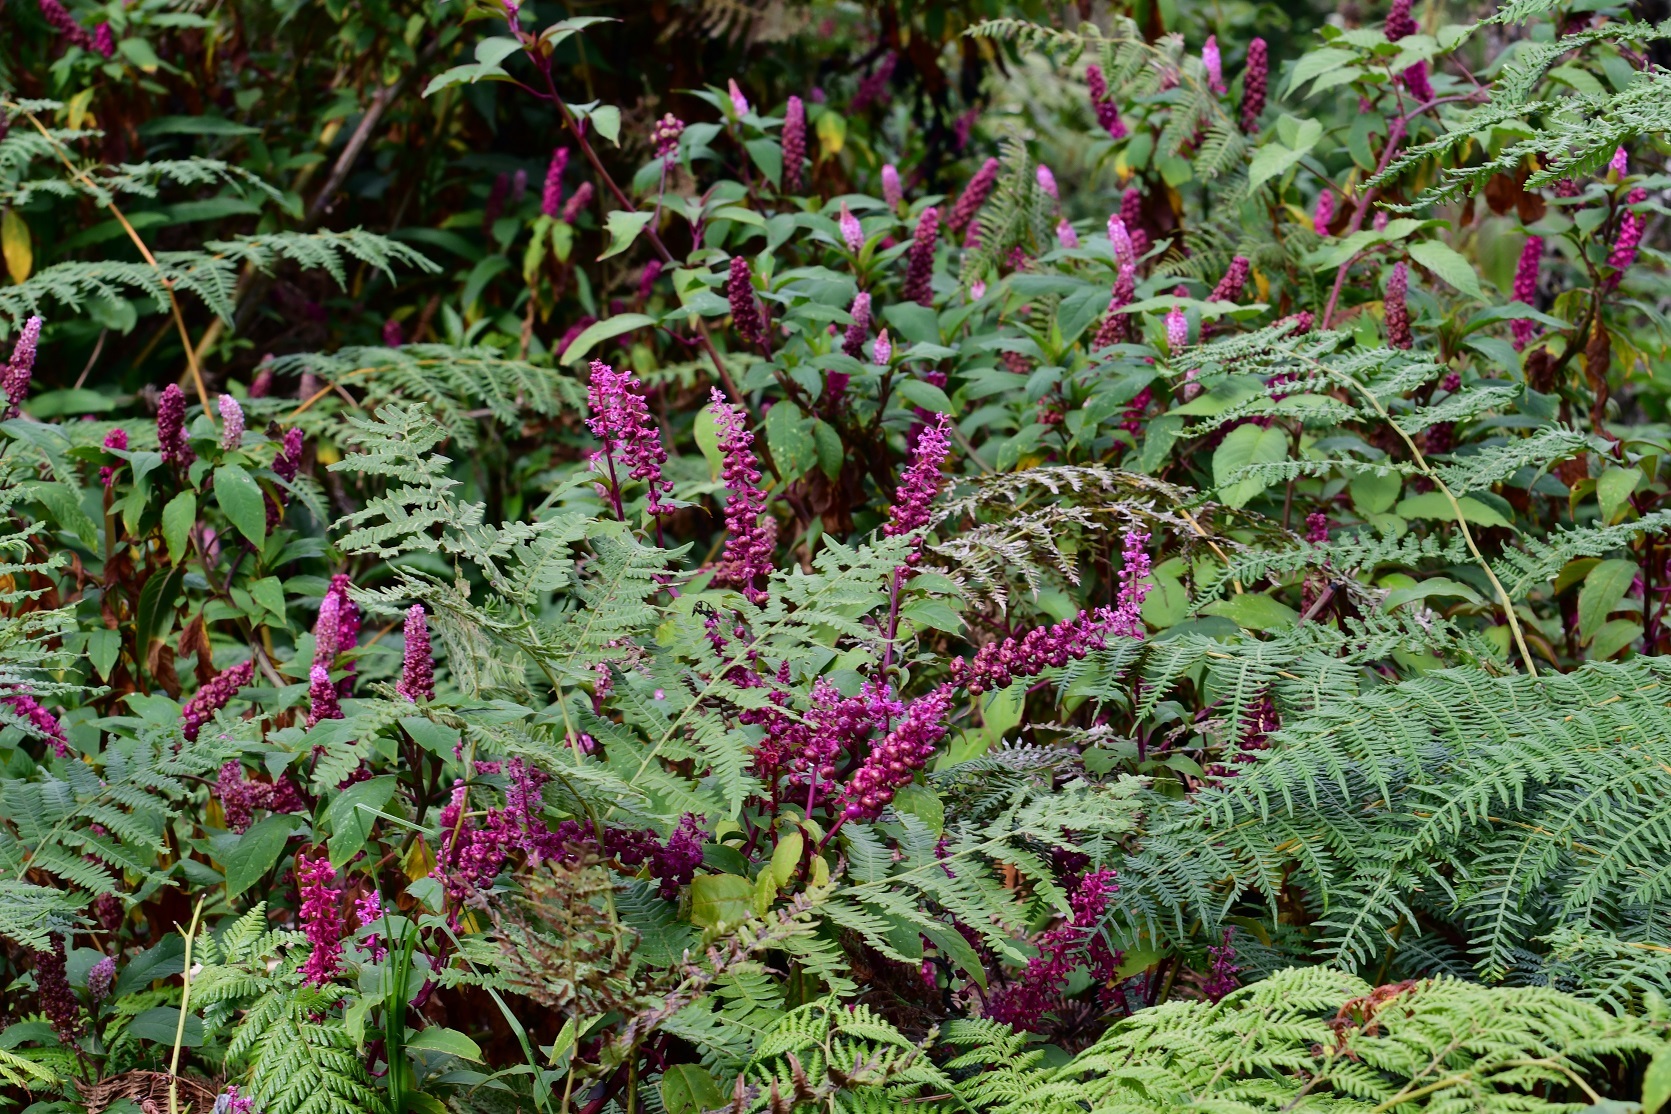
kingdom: Plantae
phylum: Tracheophyta
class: Magnoliopsida
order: Caryophyllales
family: Phytolaccaceae
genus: Phytolacca
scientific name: Phytolacca rugosa
